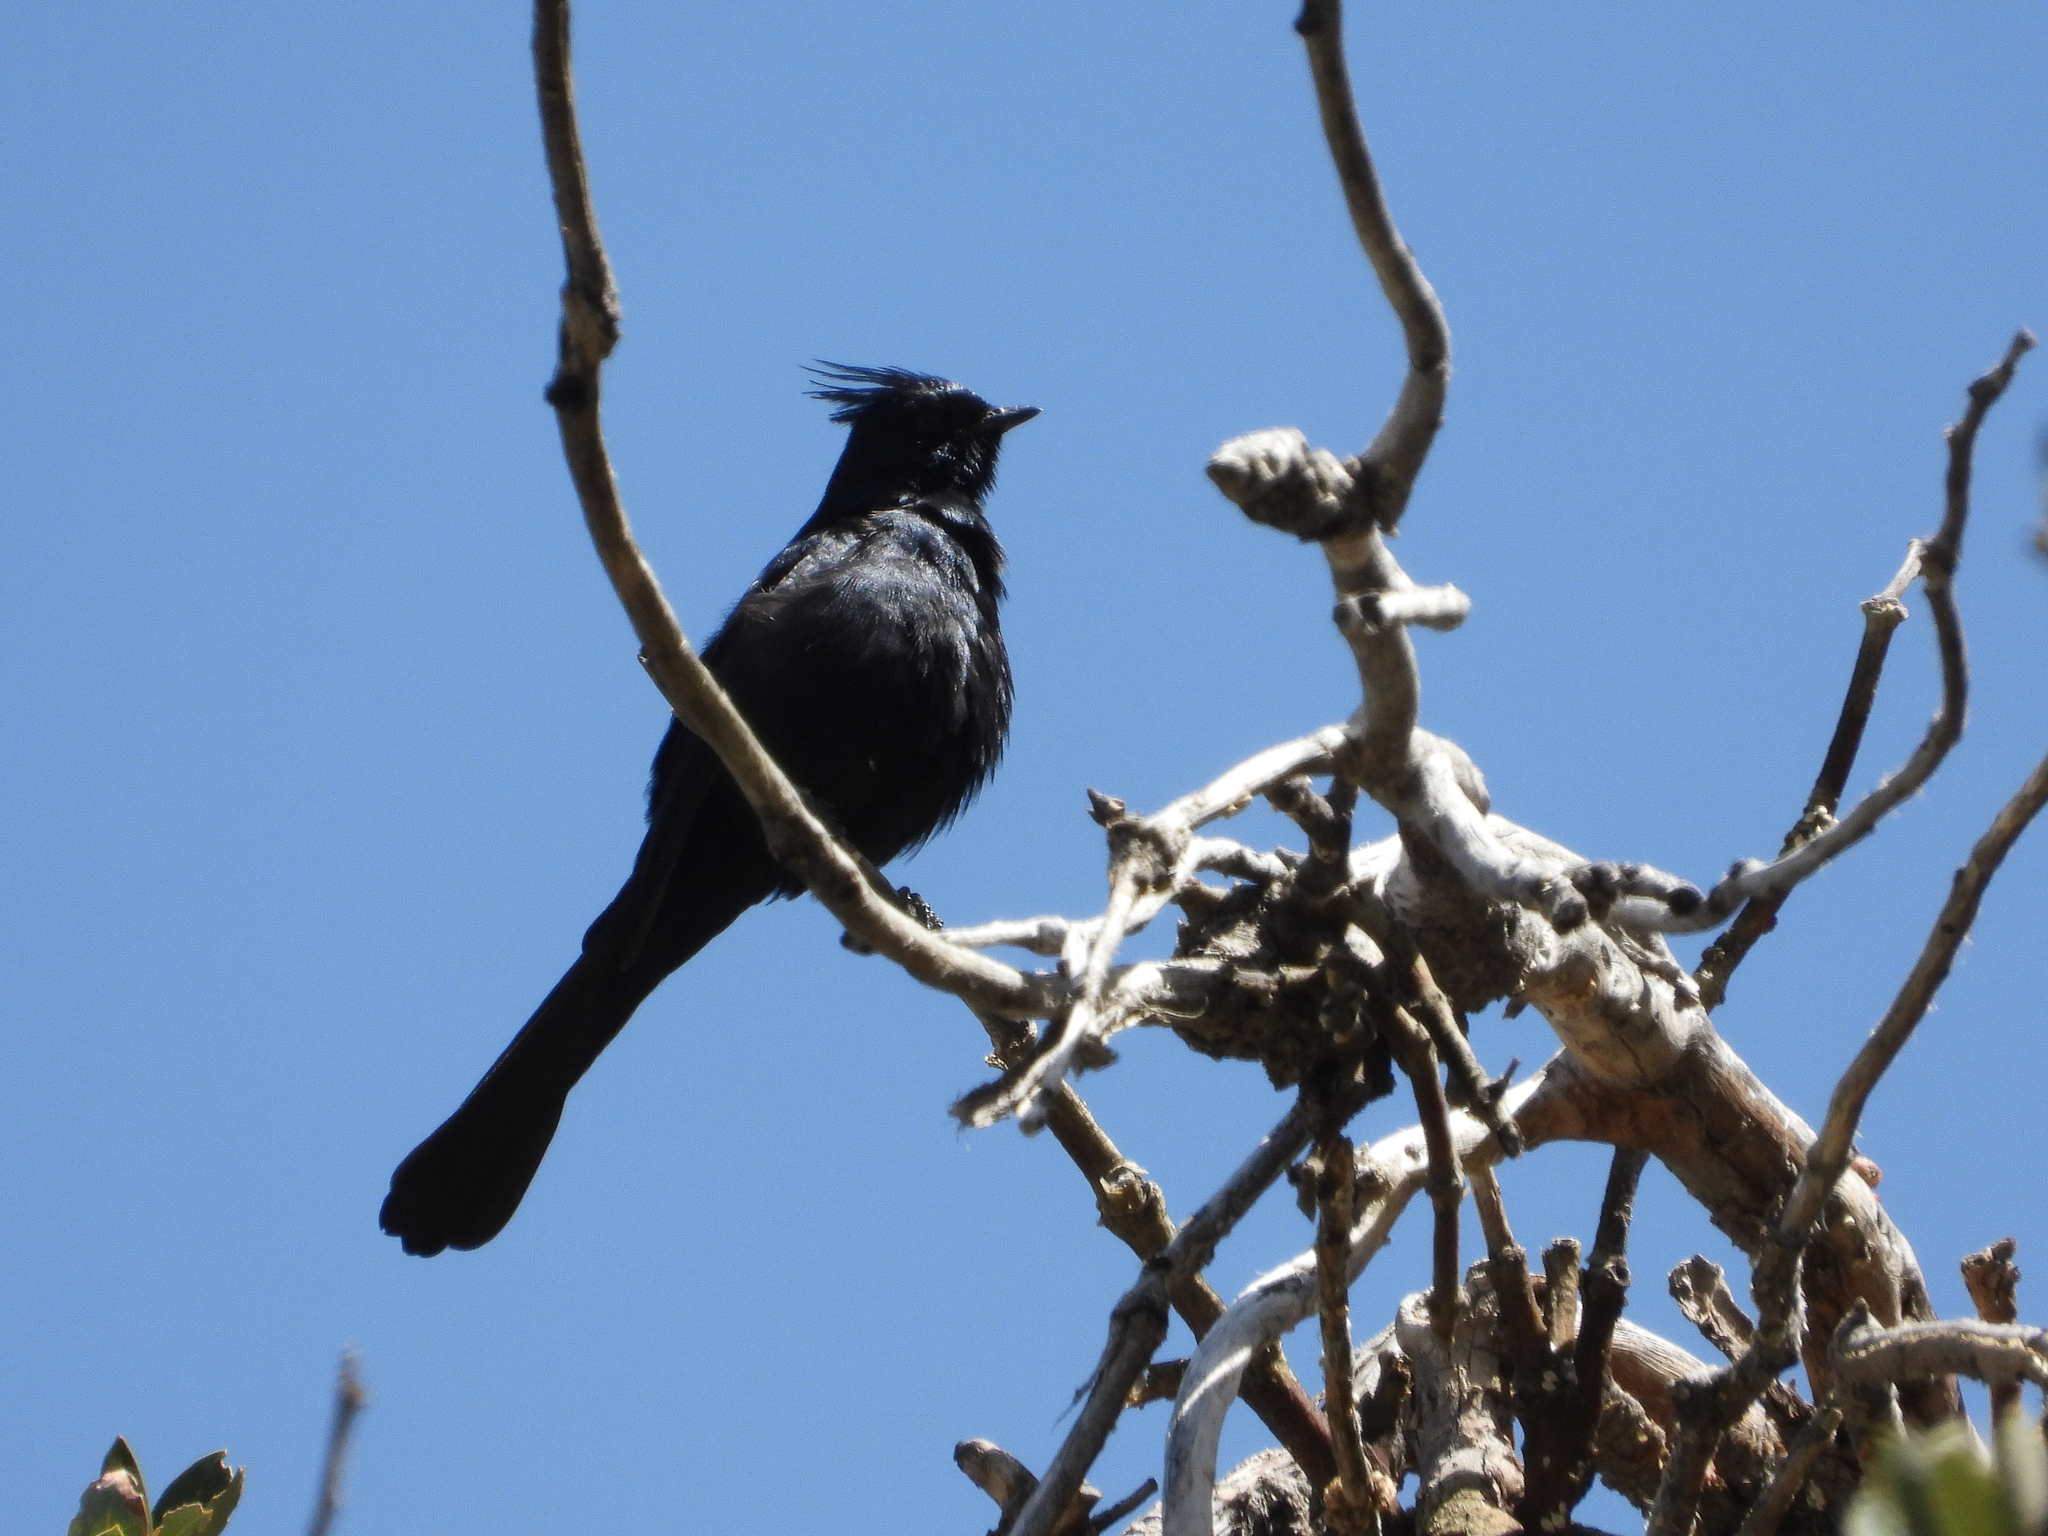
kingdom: Animalia
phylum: Chordata
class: Aves
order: Passeriformes
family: Ptilogonatidae
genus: Phainopepla
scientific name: Phainopepla nitens
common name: Phainopepla
